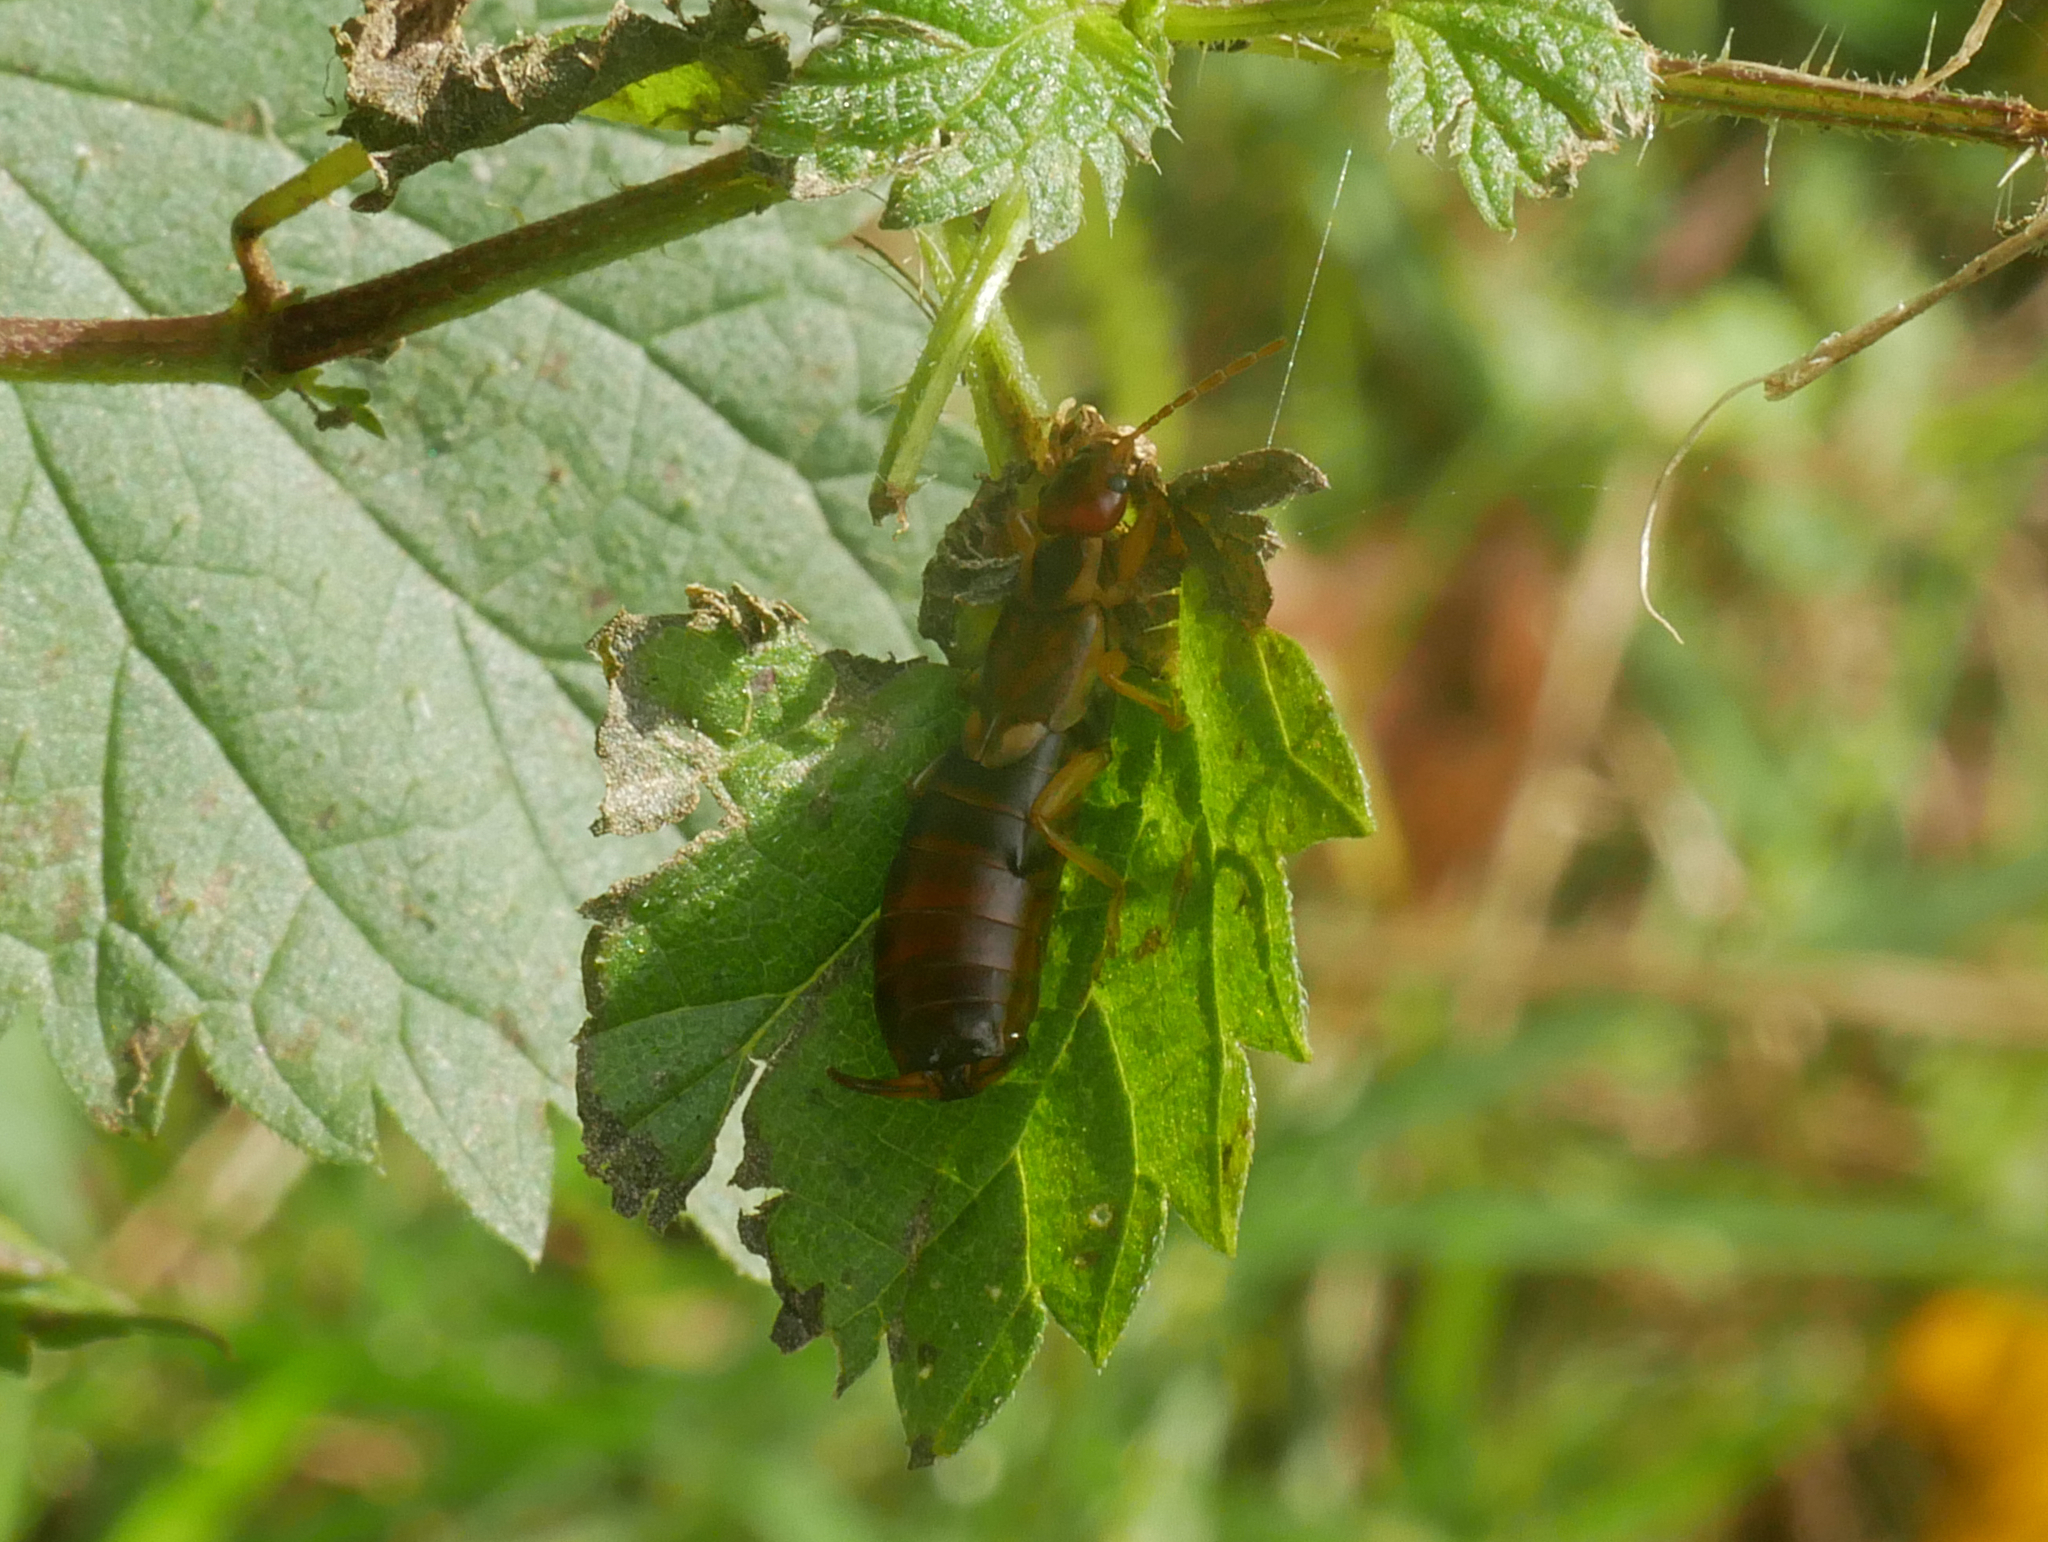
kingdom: Animalia
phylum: Arthropoda
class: Insecta
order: Dermaptera
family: Forficulidae
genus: Forficula
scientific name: Forficula
